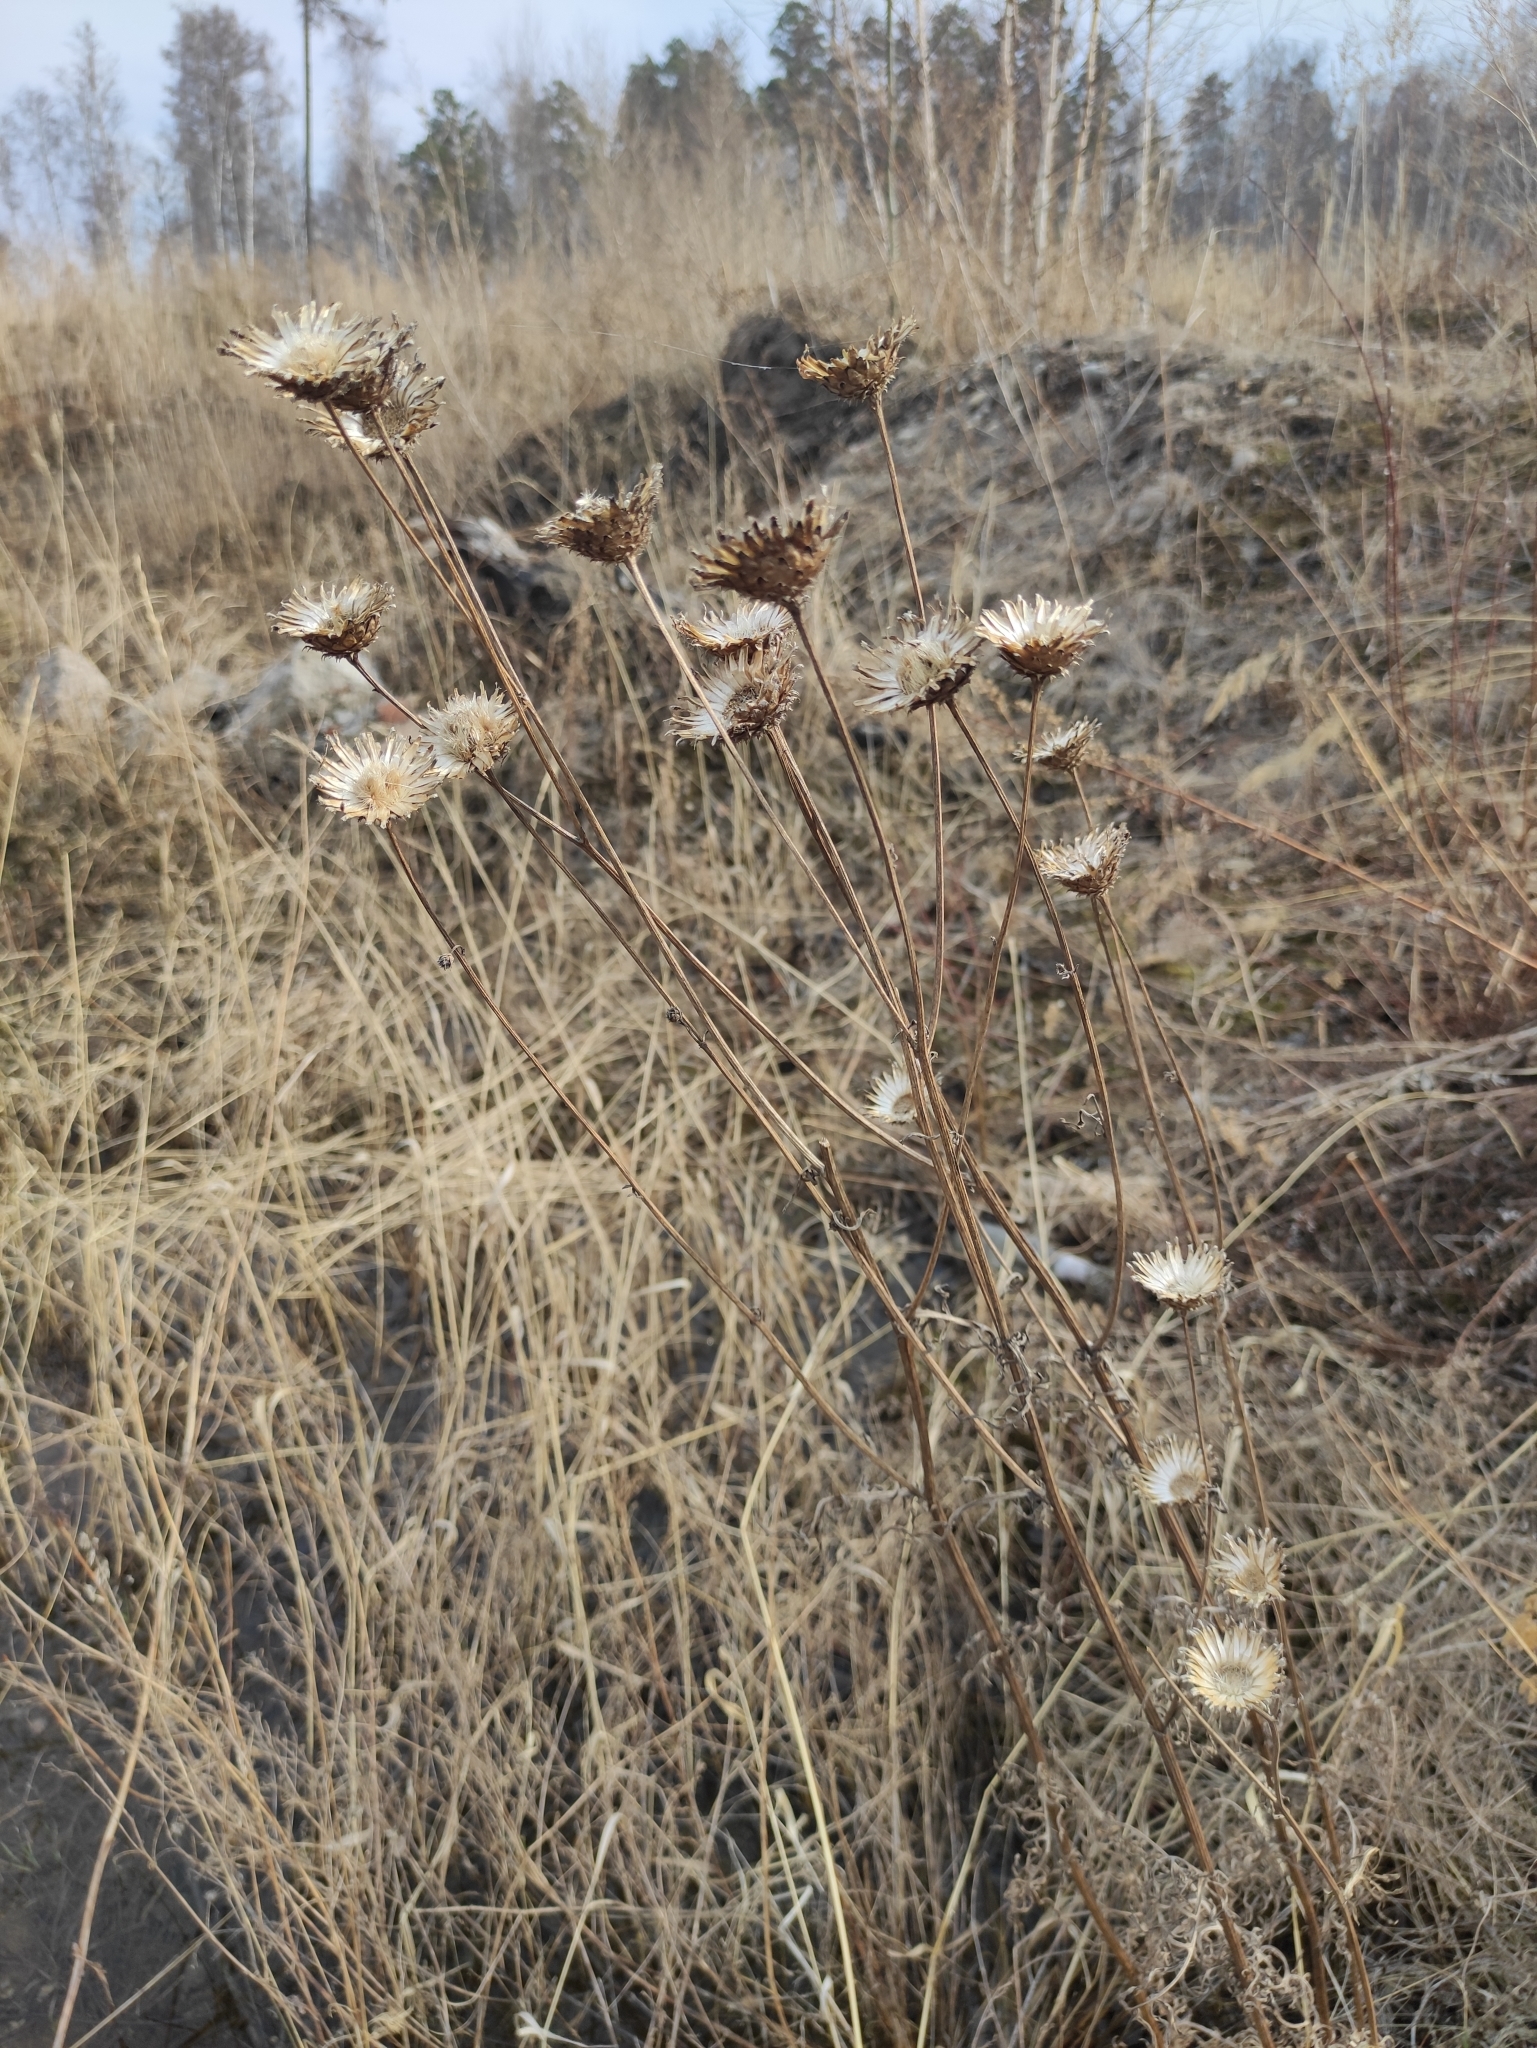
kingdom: Plantae
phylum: Tracheophyta
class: Magnoliopsida
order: Asterales
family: Asteraceae
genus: Klasea
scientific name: Klasea centauroides
